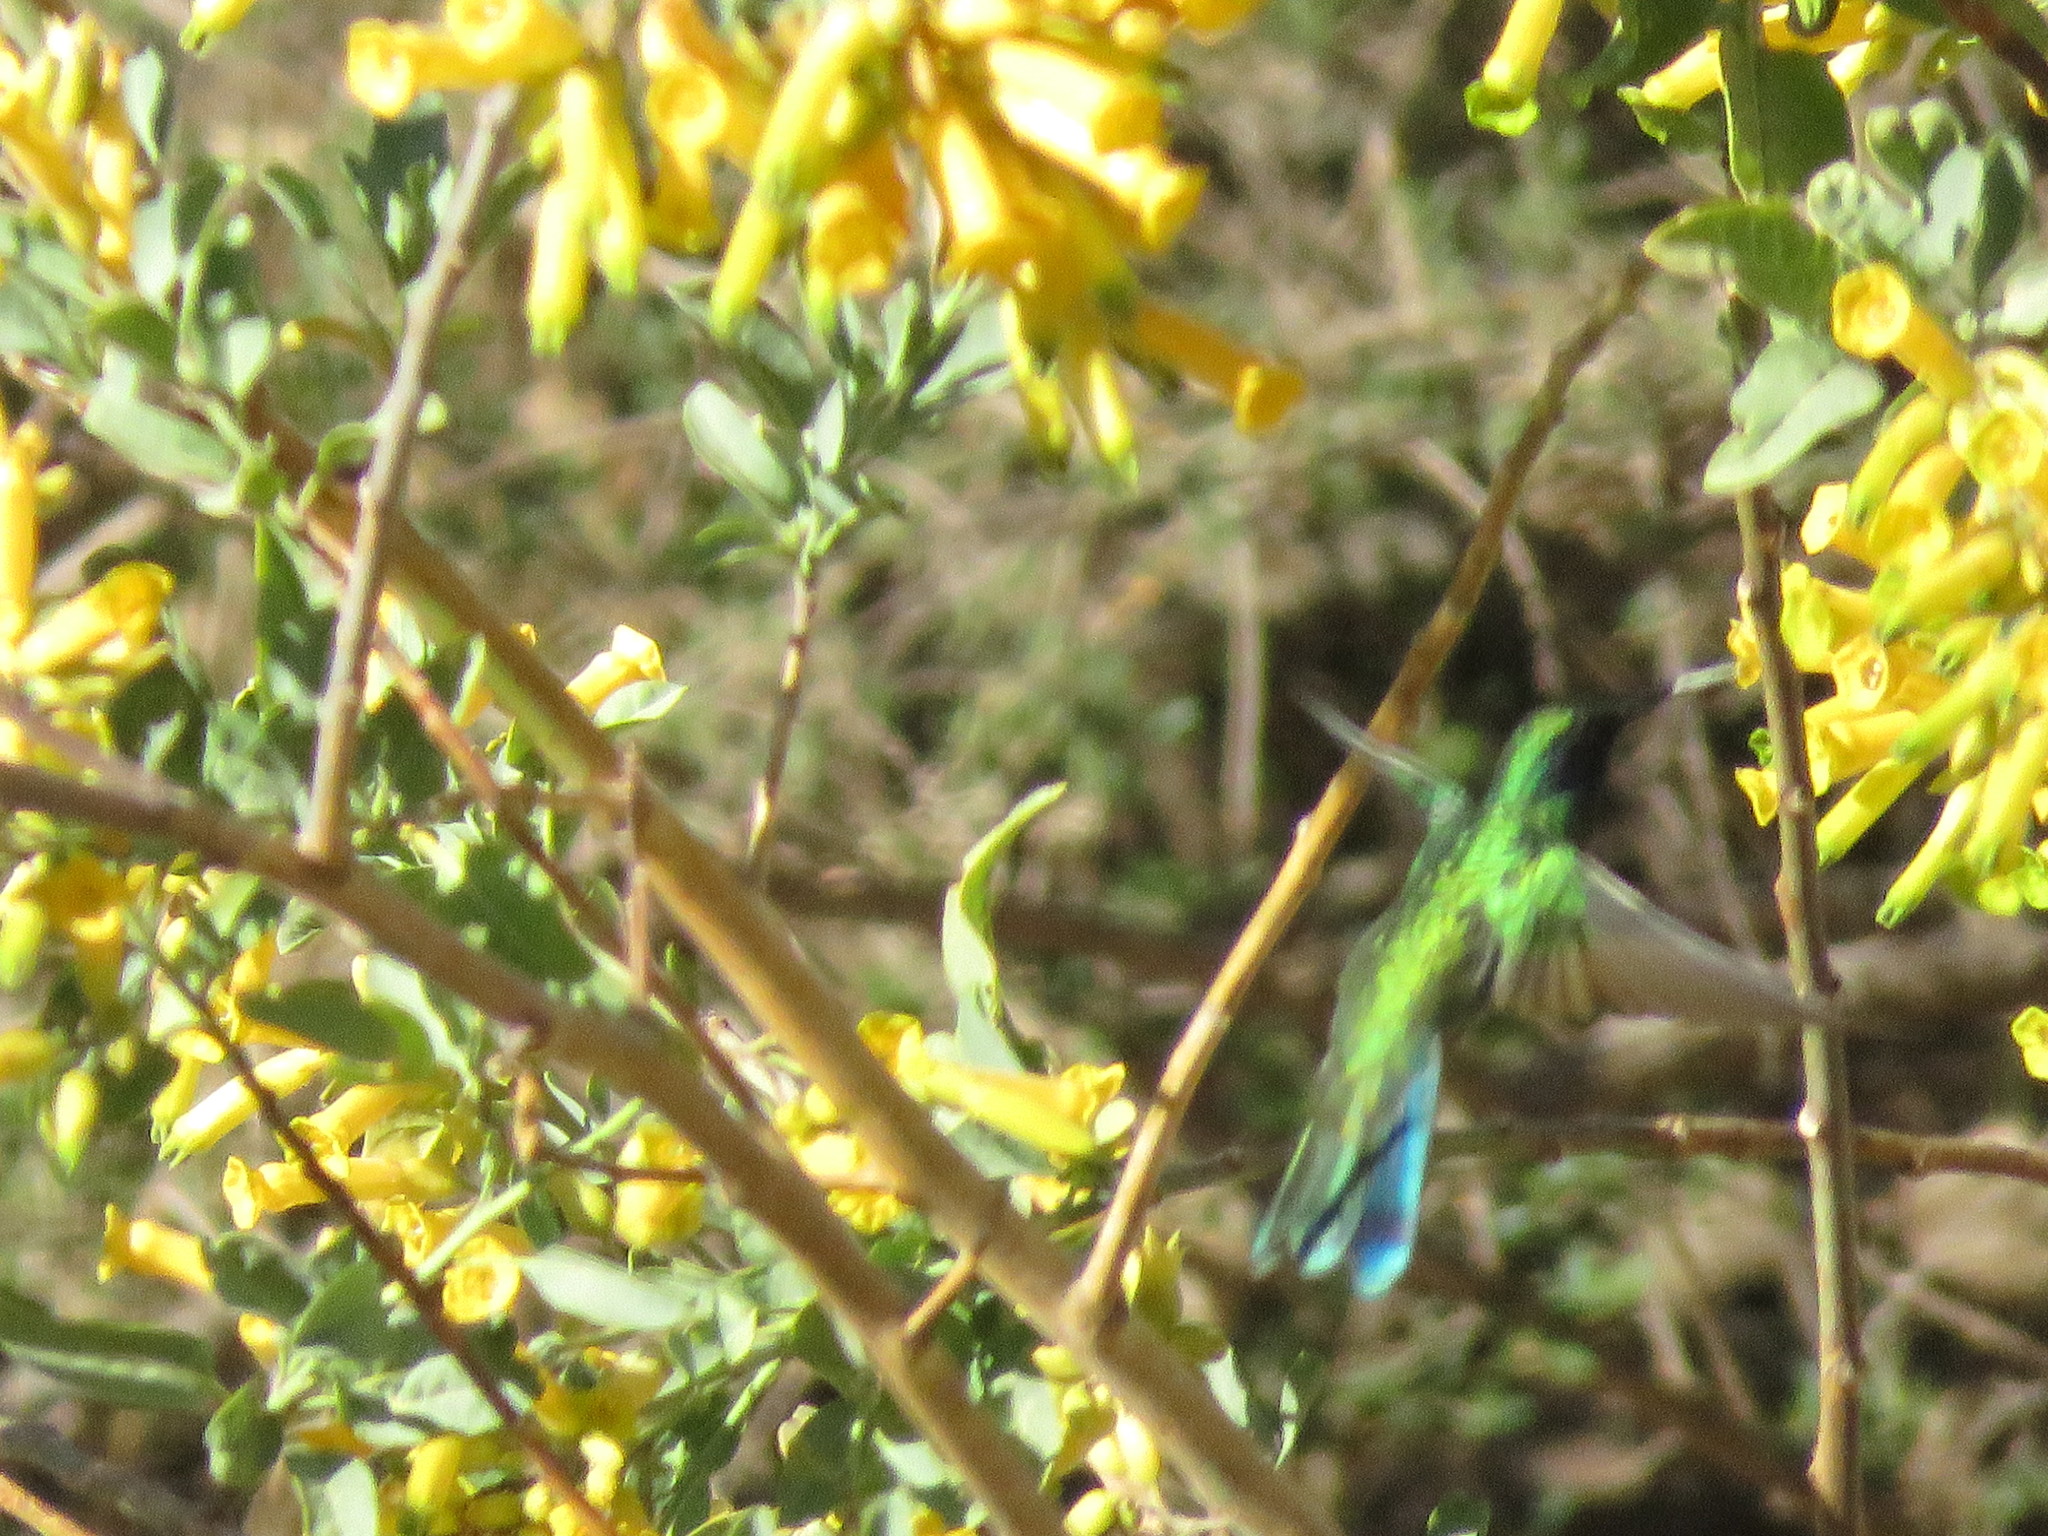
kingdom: Animalia
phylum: Chordata
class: Aves
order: Apodiformes
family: Trochilidae
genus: Colibri
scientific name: Colibri coruscans
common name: Sparkling violetear
